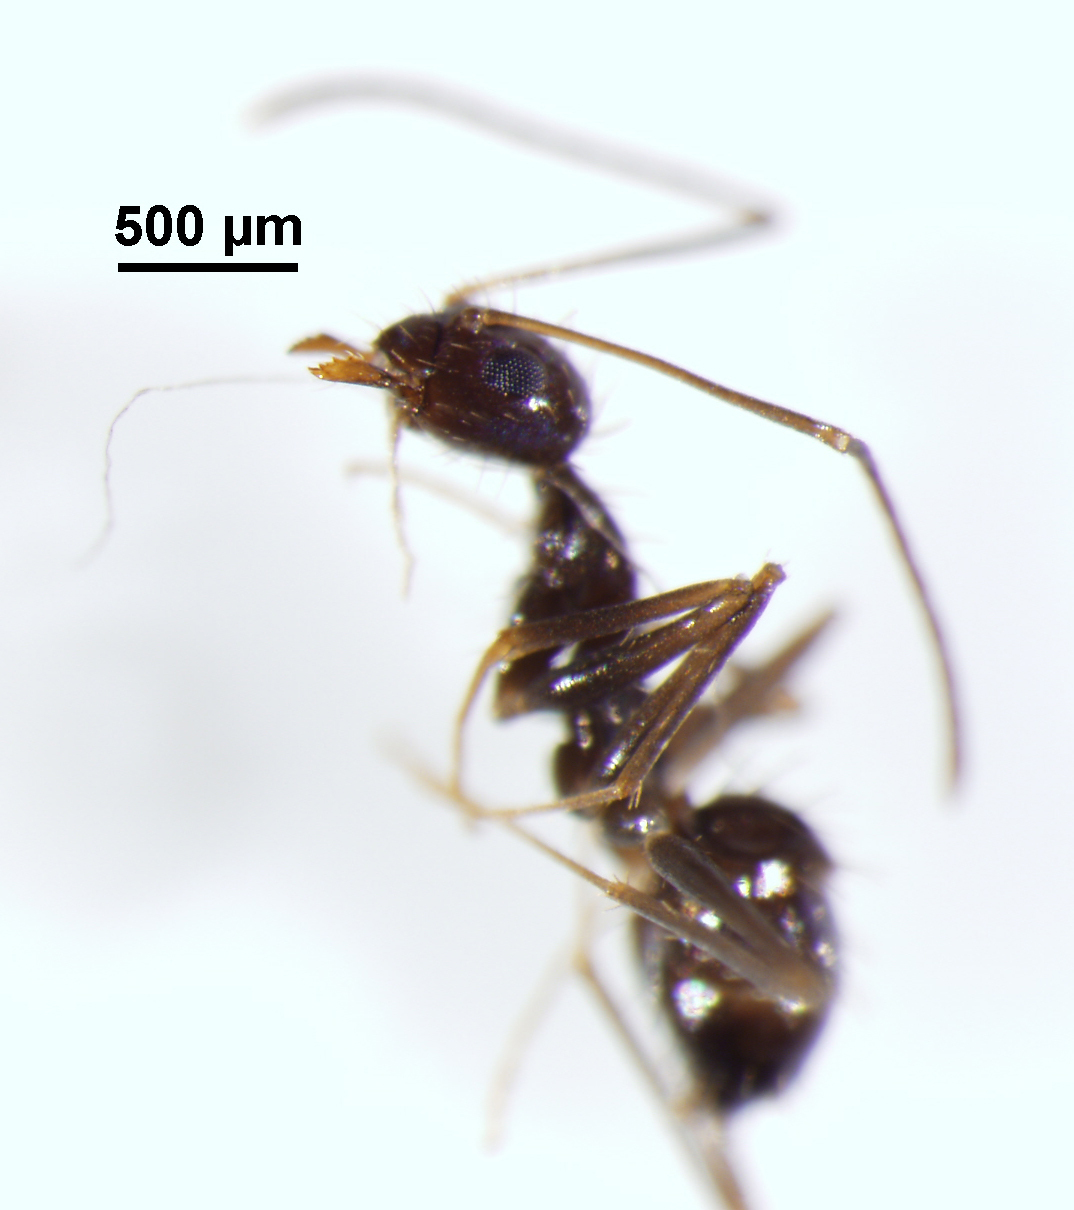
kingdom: Animalia
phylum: Arthropoda
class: Insecta
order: Hymenoptera
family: Formicidae
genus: Paratrechina
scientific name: Paratrechina longicornis
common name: Longhorned crazy ant
